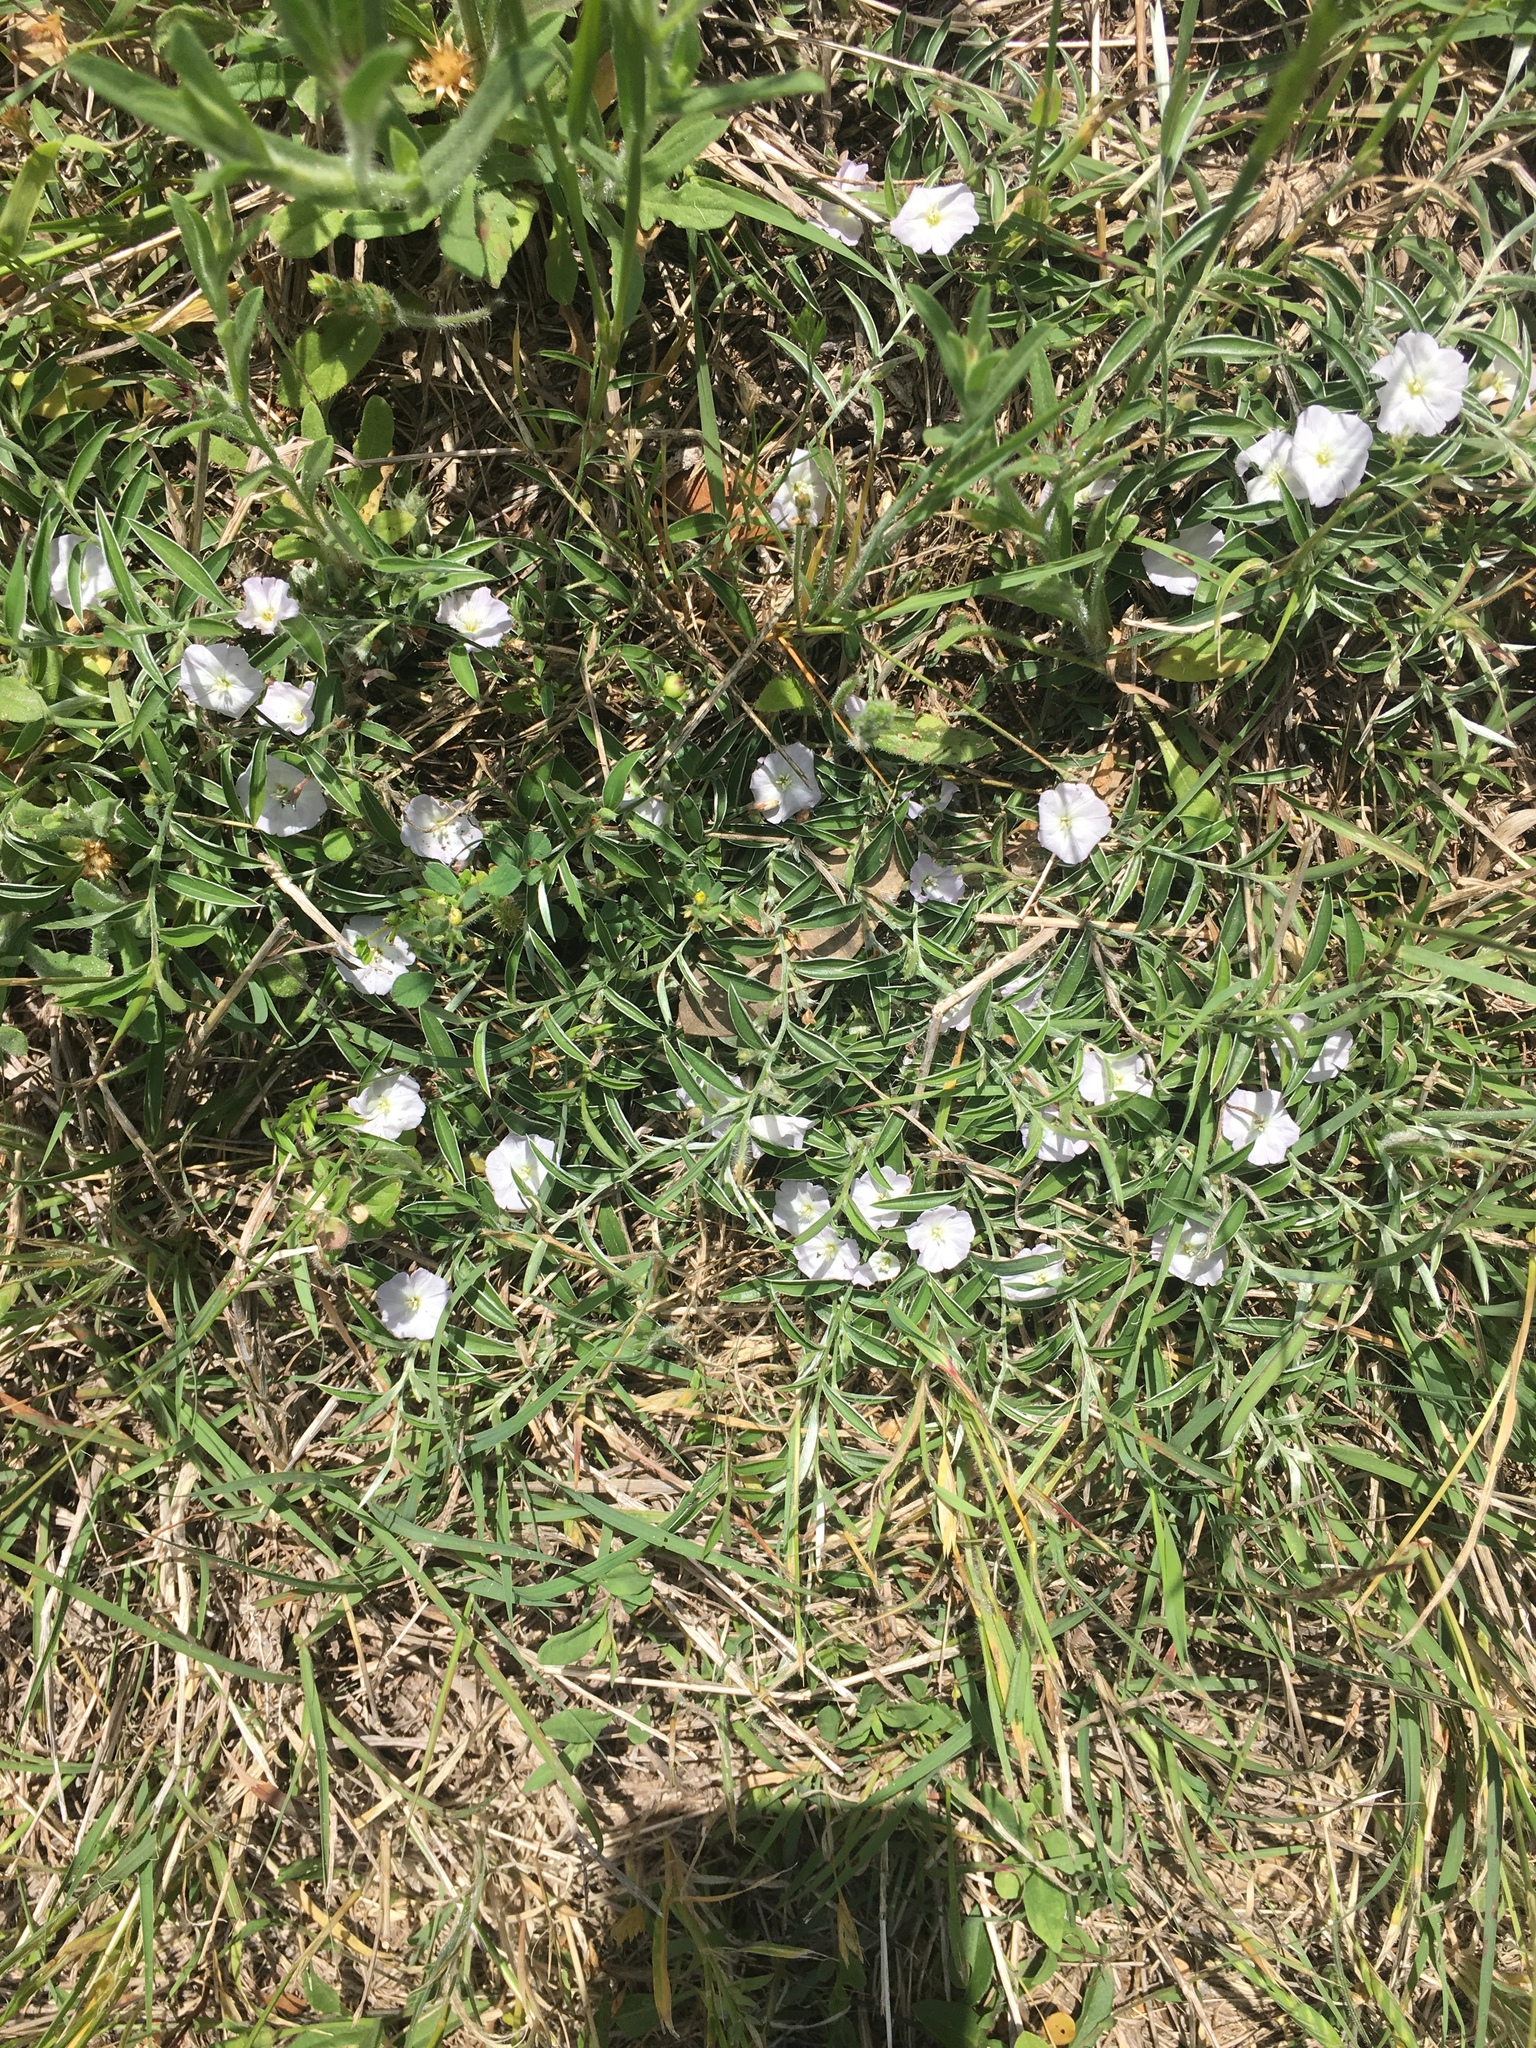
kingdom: Plantae
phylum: Tracheophyta
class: Magnoliopsida
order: Solanales
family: Convolvulaceae
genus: Evolvulus
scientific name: Evolvulus sericeus
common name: Blue dots
